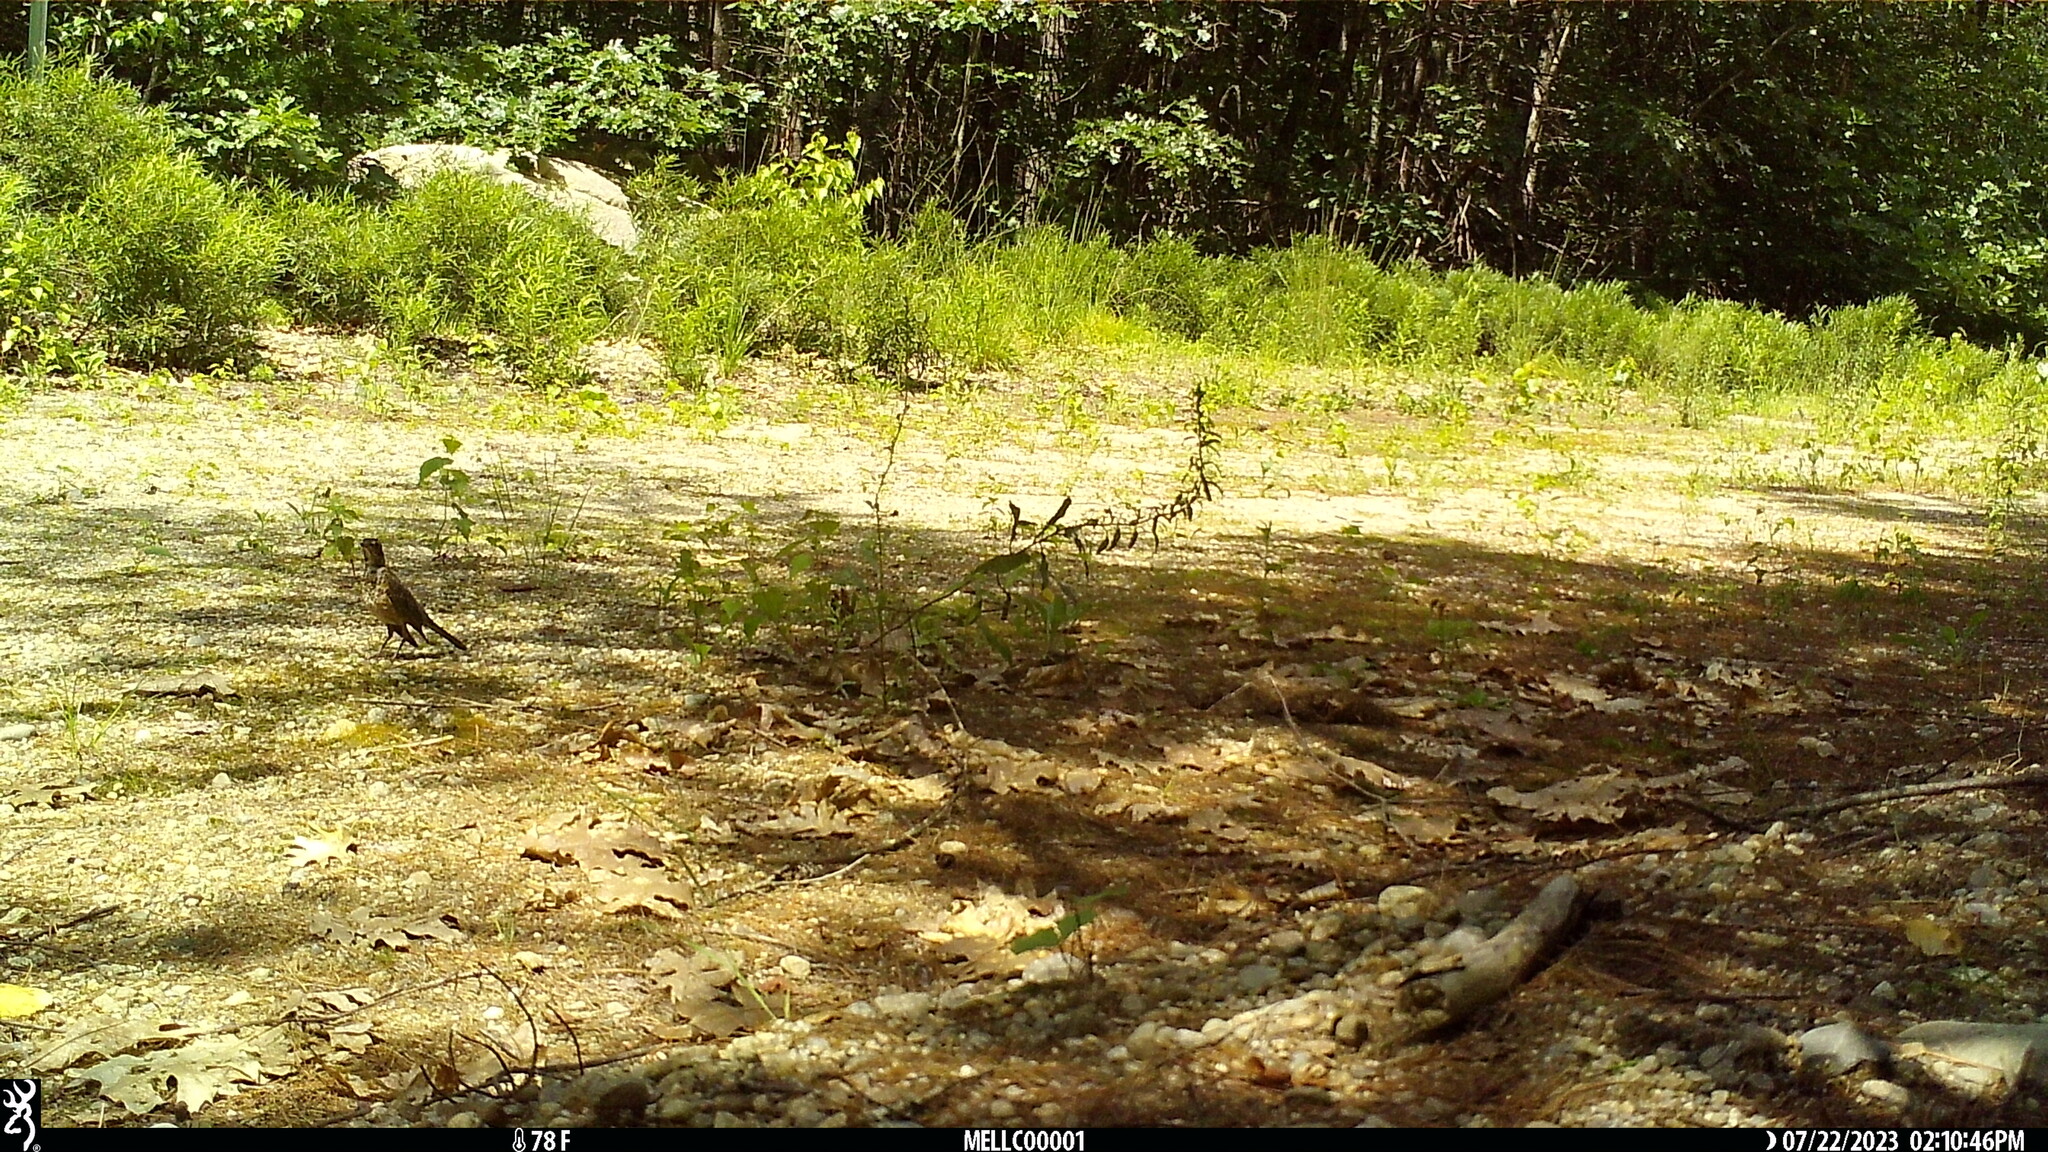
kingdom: Animalia
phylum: Chordata
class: Aves
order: Passeriformes
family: Turdidae
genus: Turdus
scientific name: Turdus migratorius
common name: American robin
